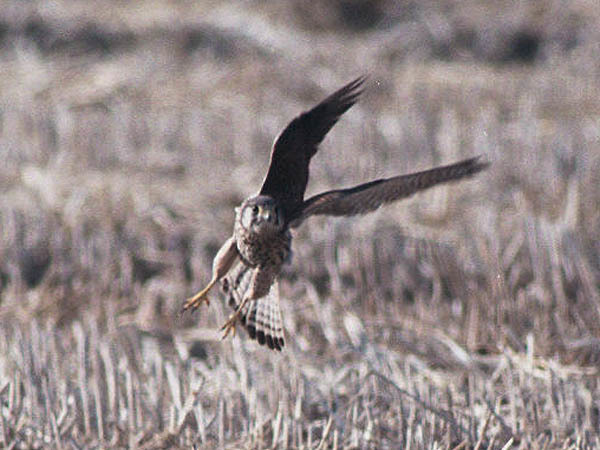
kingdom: Animalia
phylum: Chordata
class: Aves
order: Falconiformes
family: Falconidae
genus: Falco
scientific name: Falco tinnunculus
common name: Common kestrel
